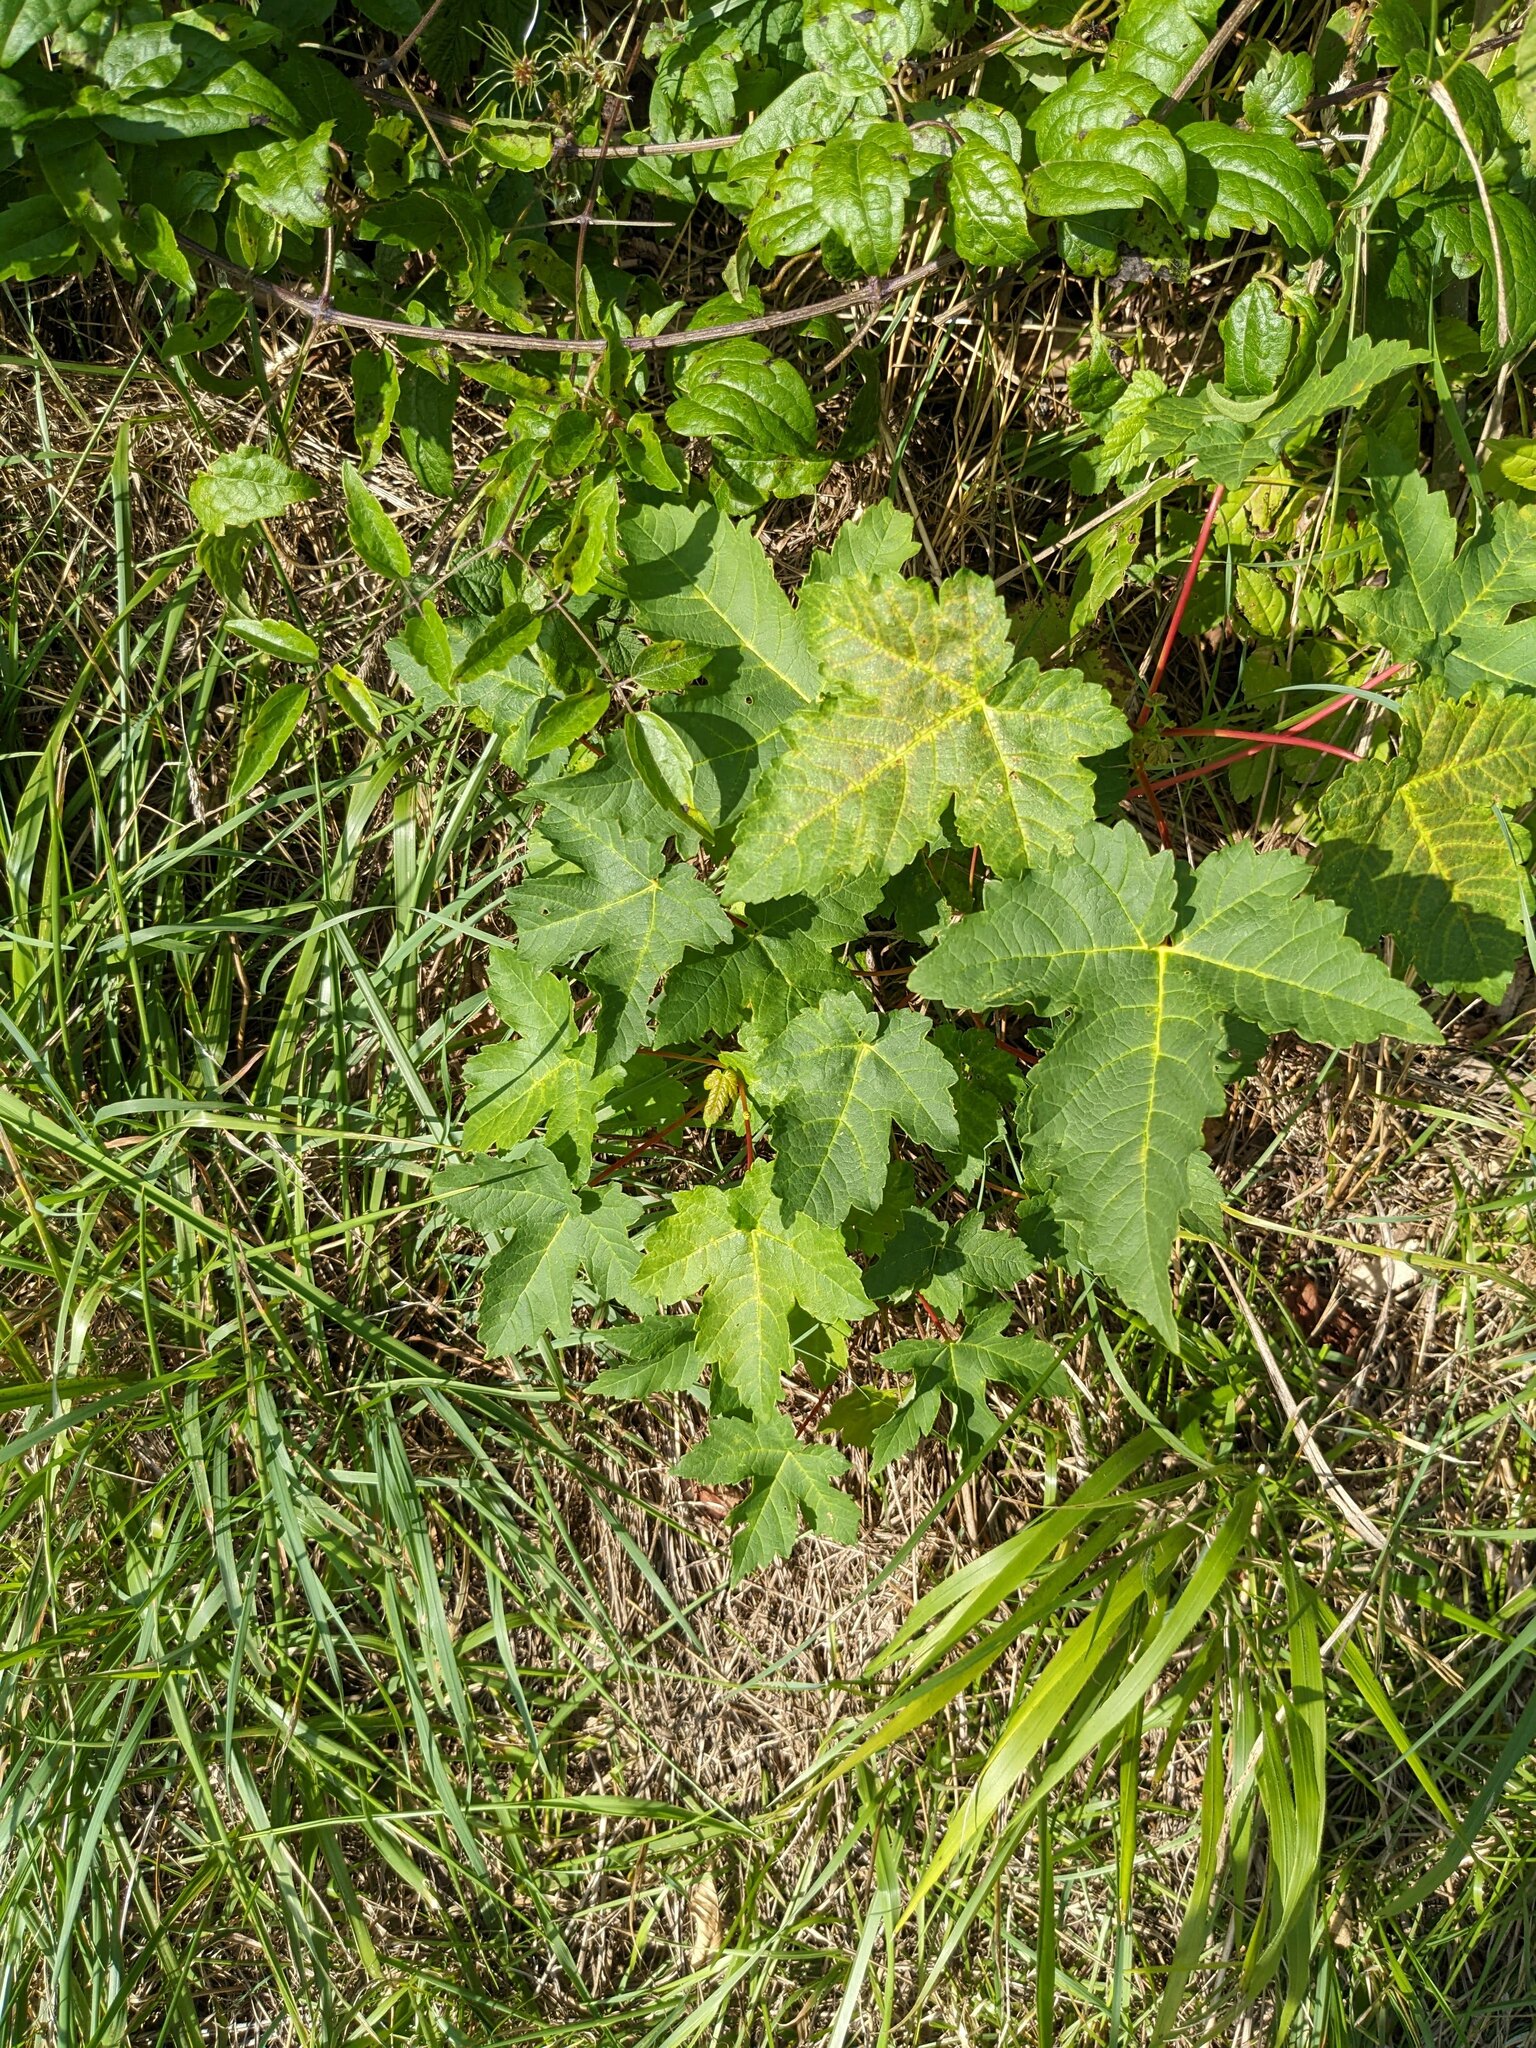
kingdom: Plantae
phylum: Tracheophyta
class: Magnoliopsida
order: Sapindales
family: Sapindaceae
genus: Acer
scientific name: Acer pseudoplatanus
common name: Sycamore
